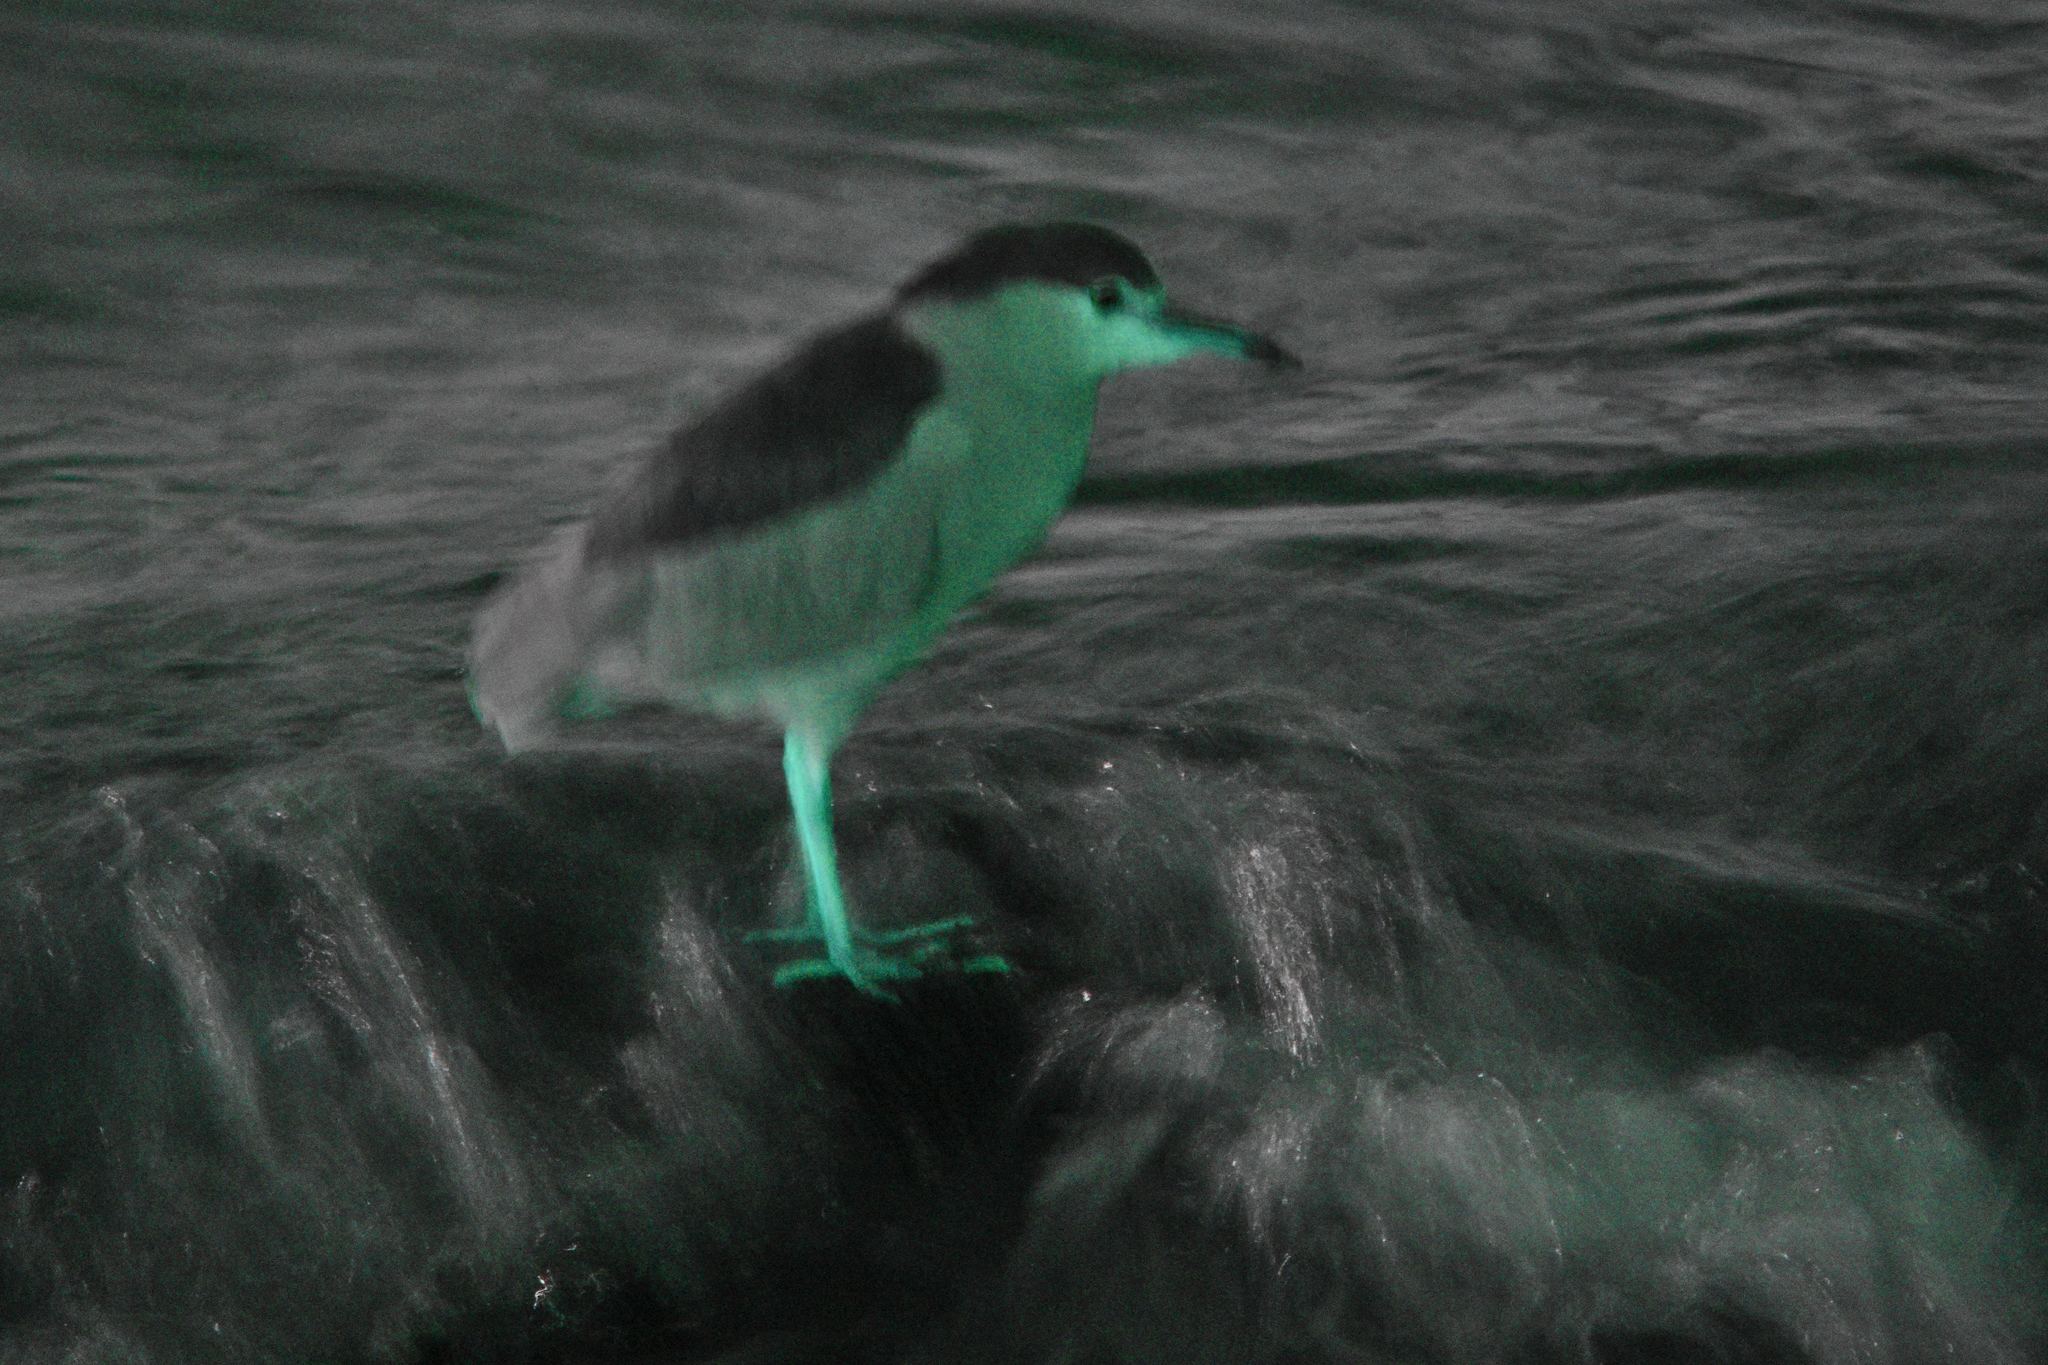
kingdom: Animalia
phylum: Chordata
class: Aves
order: Pelecaniformes
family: Ardeidae
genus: Nycticorax
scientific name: Nycticorax nycticorax
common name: Black-crowned night heron
